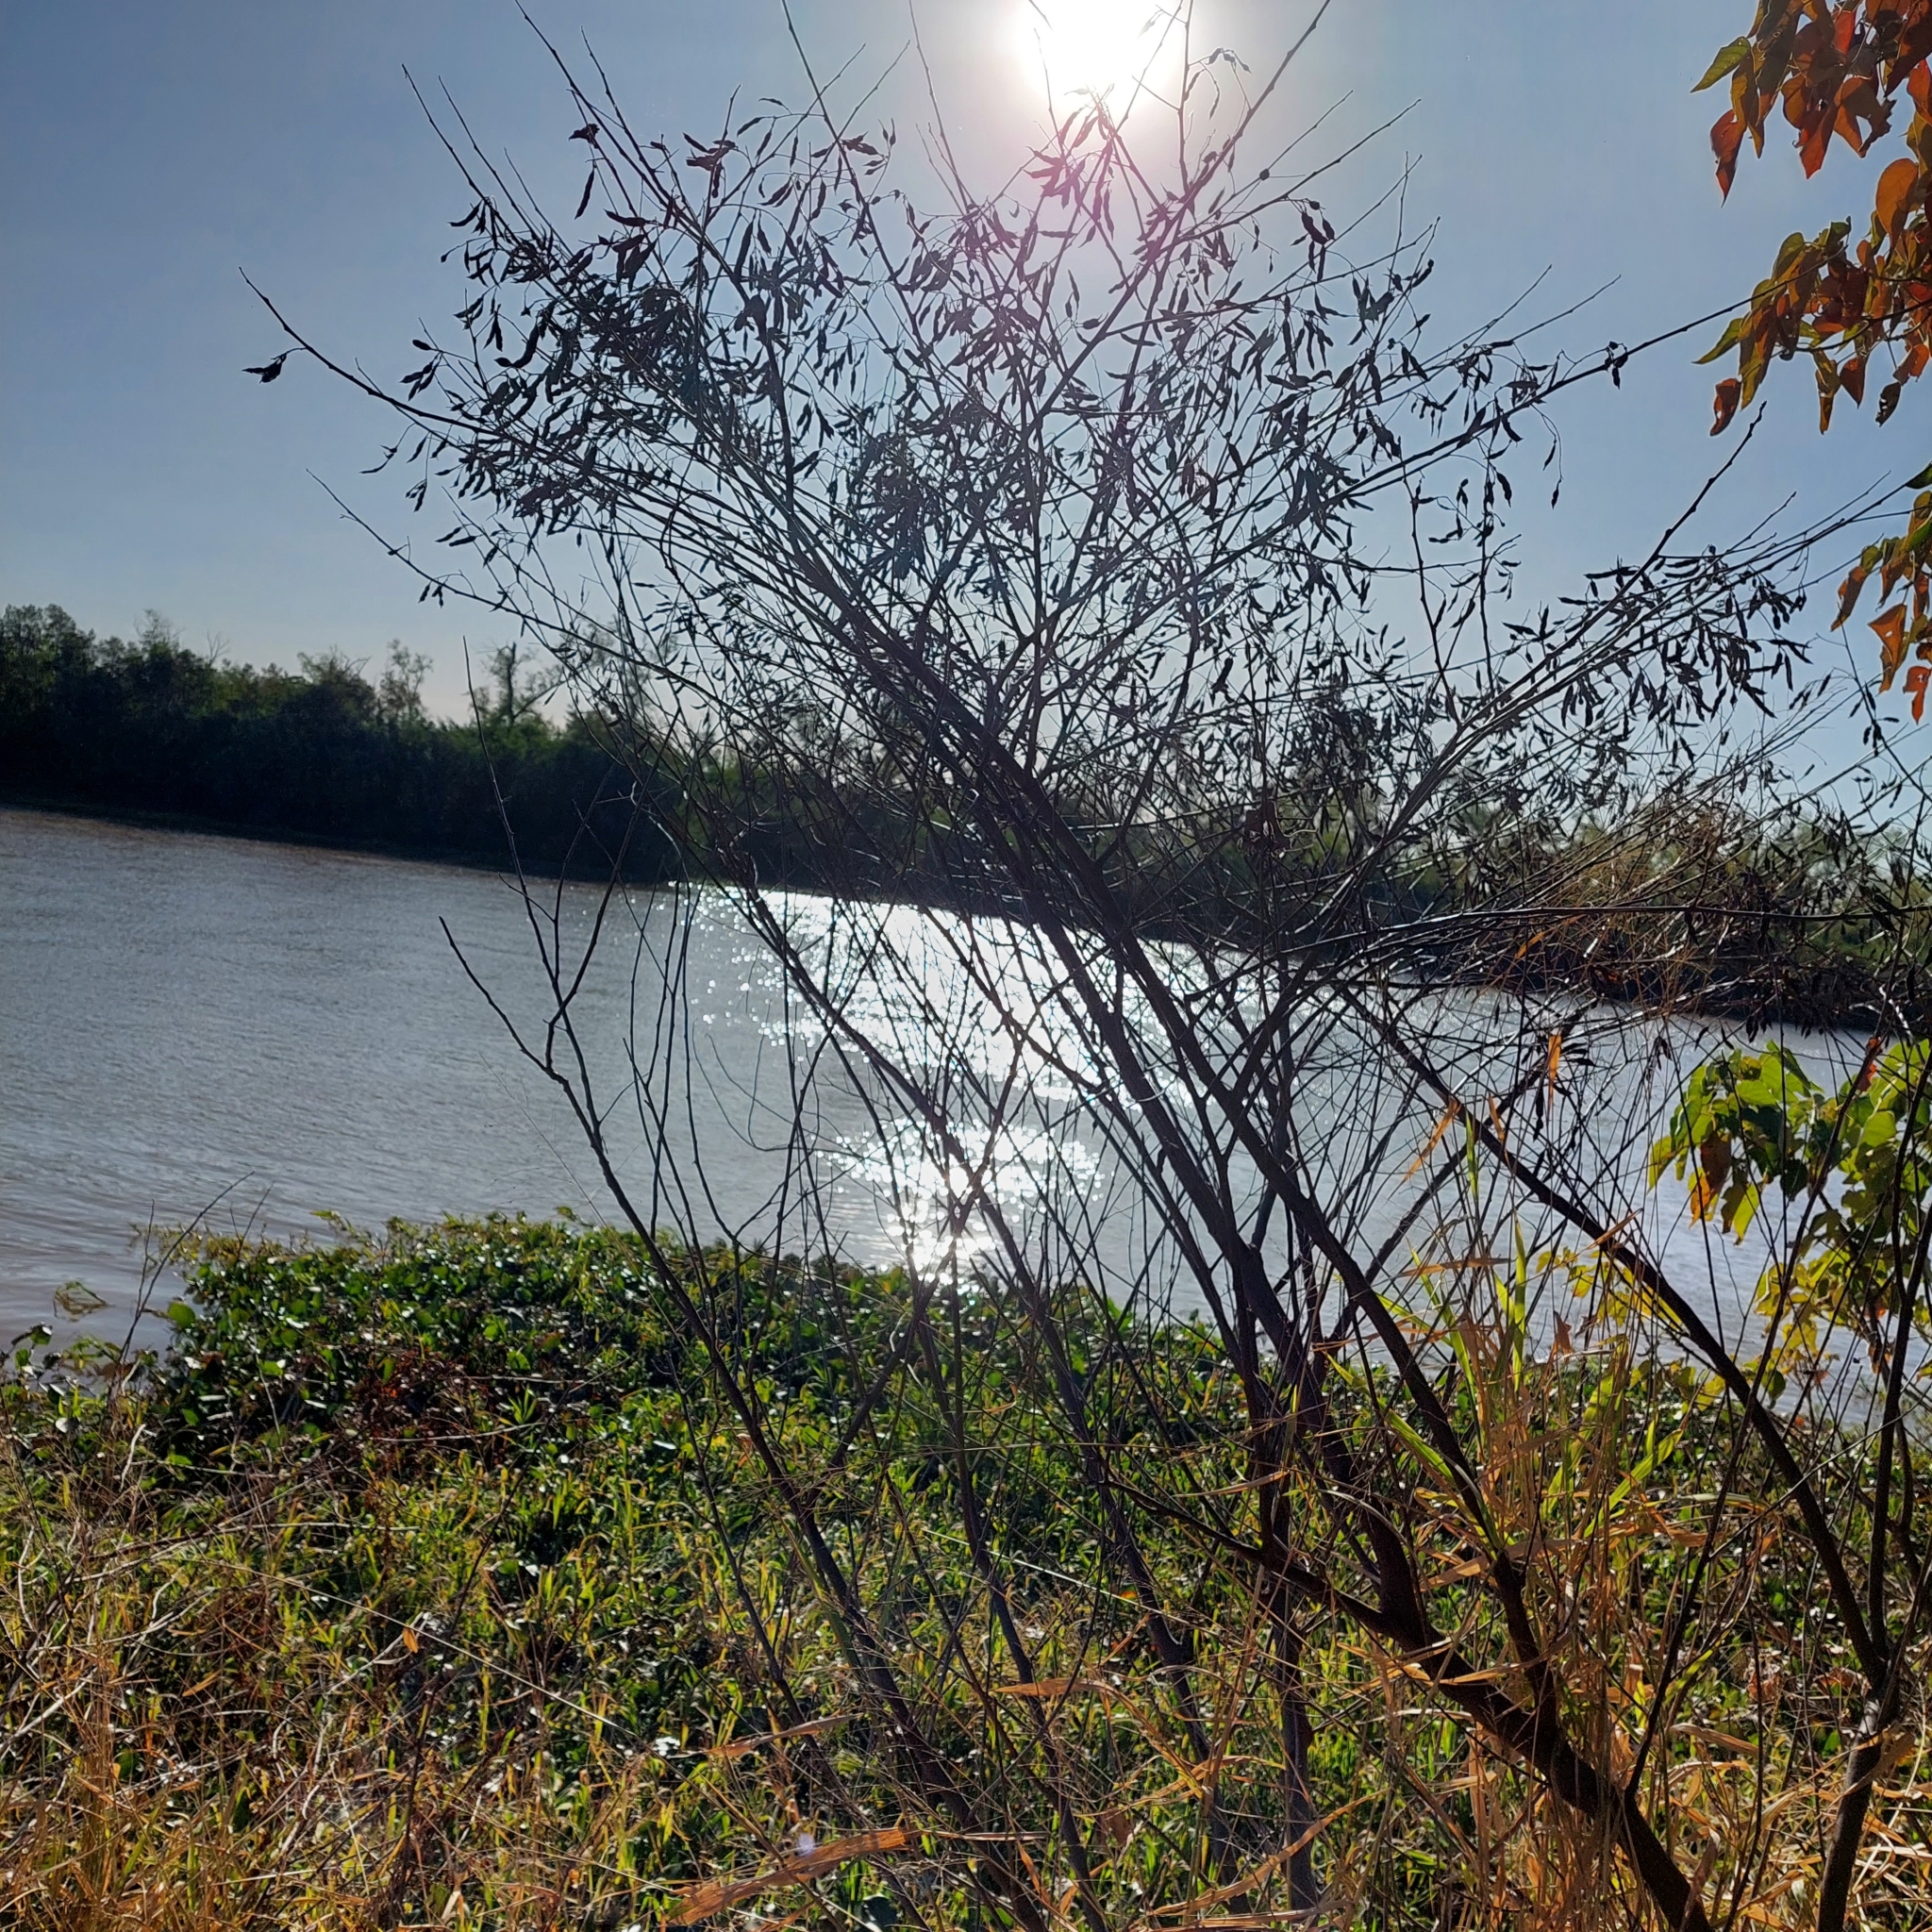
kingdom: Plantae
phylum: Tracheophyta
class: Magnoliopsida
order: Fabales
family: Fabaceae
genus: Sesbania
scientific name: Sesbania virgata
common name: Wand riverhemp
